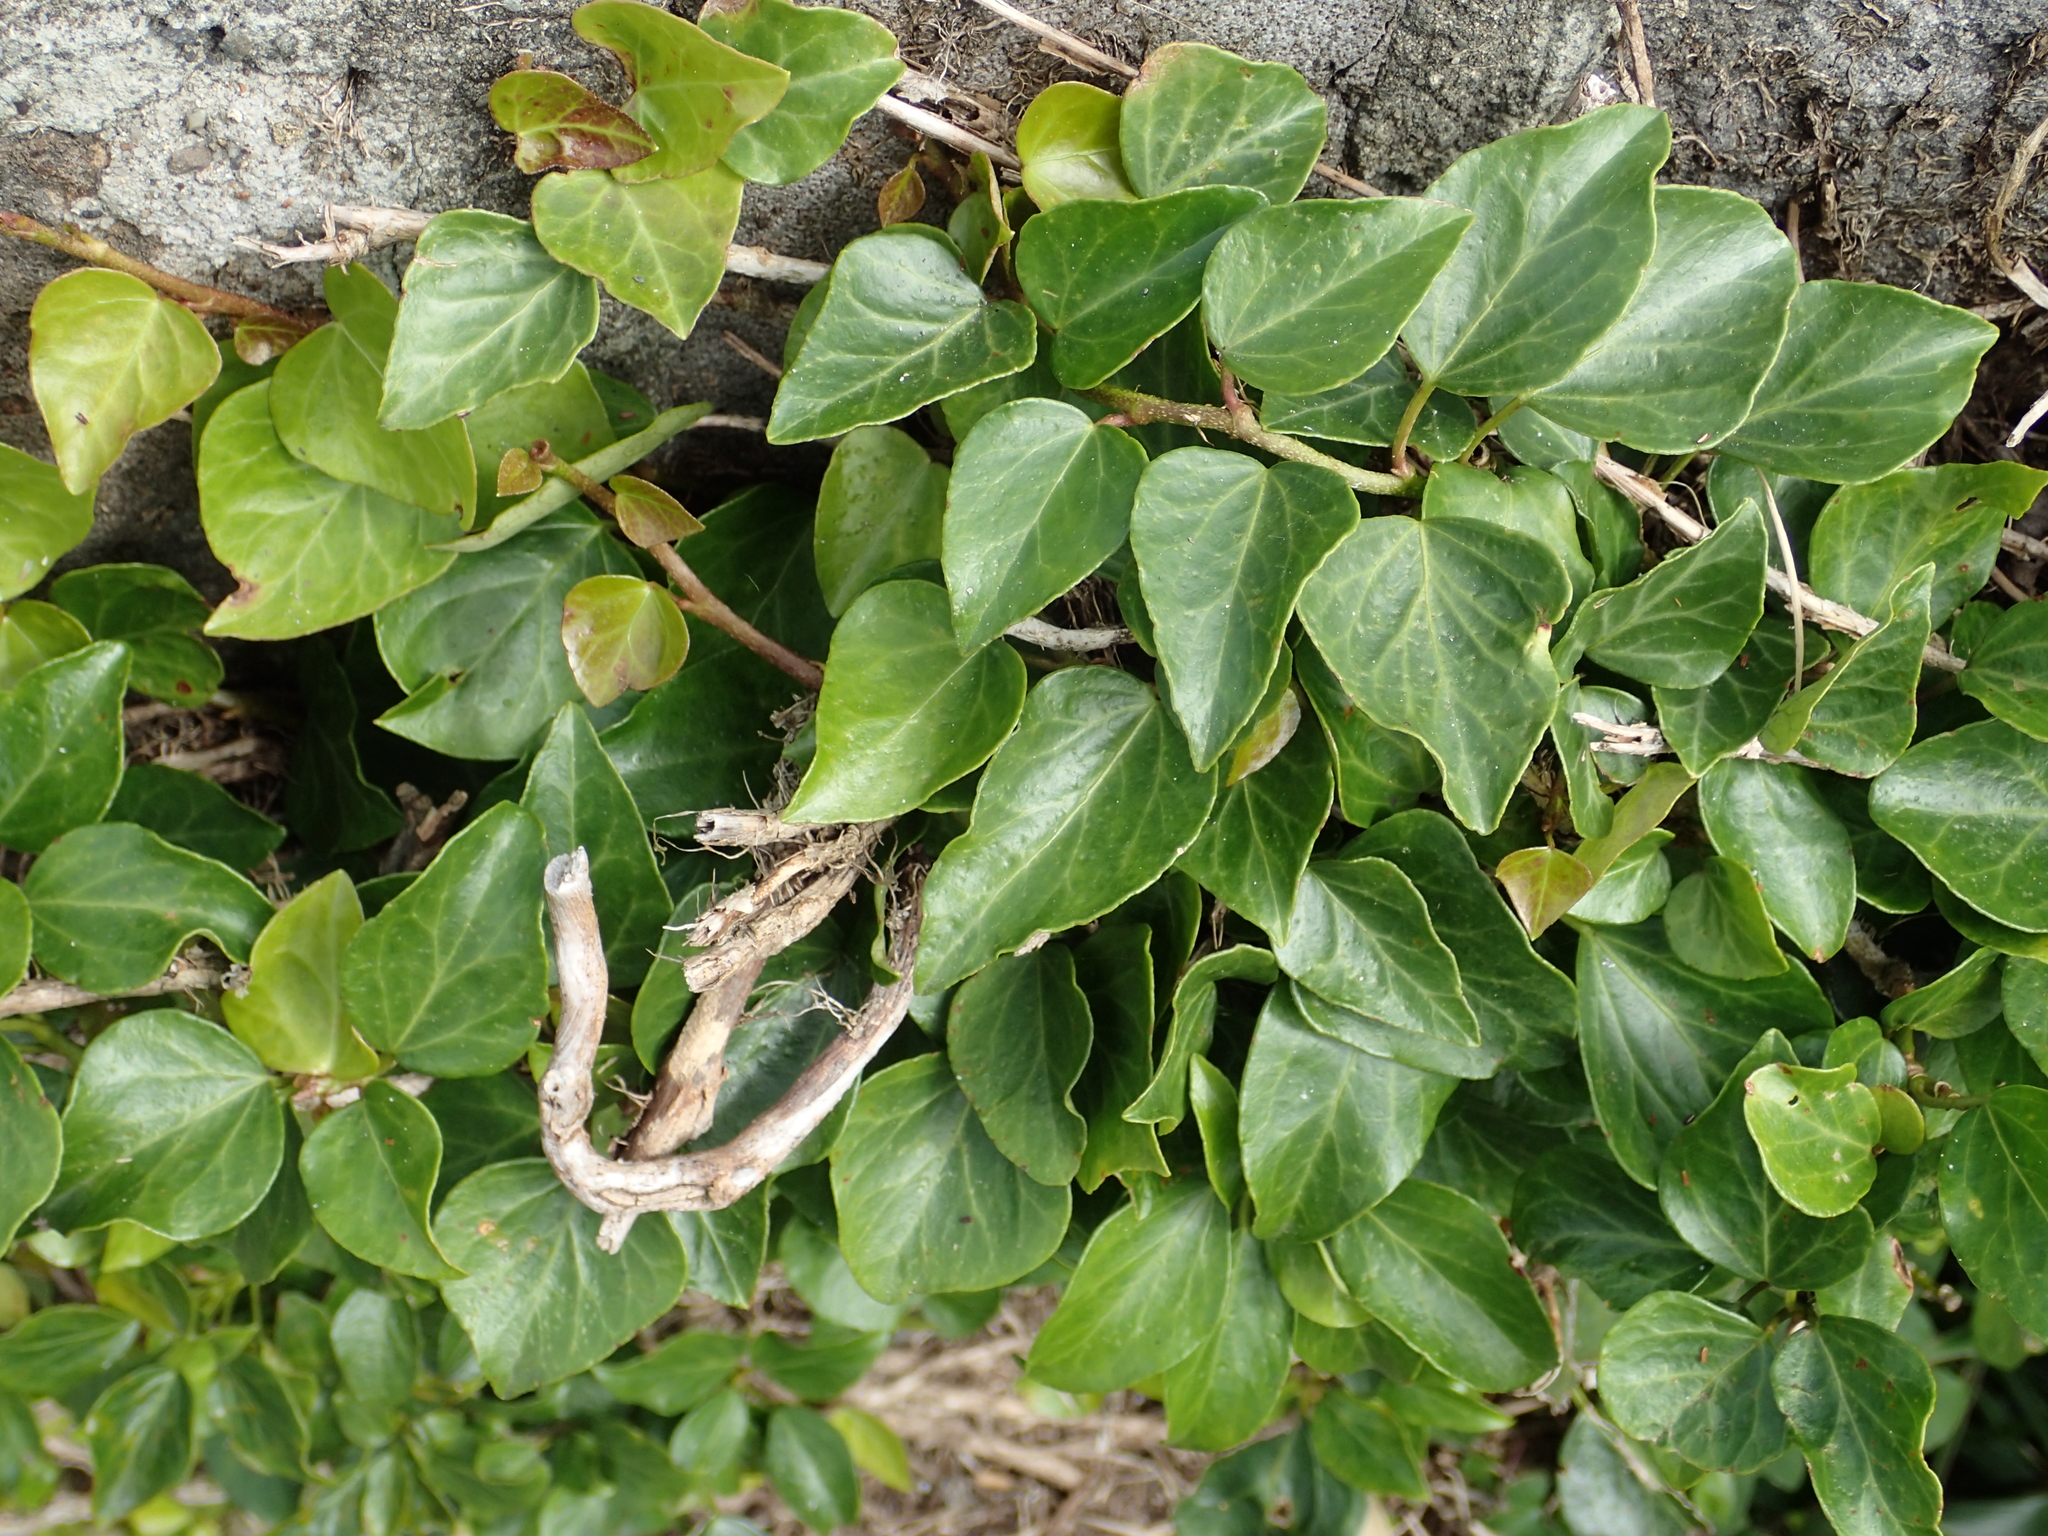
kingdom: Plantae
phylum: Tracheophyta
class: Magnoliopsida
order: Apiales
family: Araliaceae
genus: Hedera
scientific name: Hedera rhombea
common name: Japanese ivy
